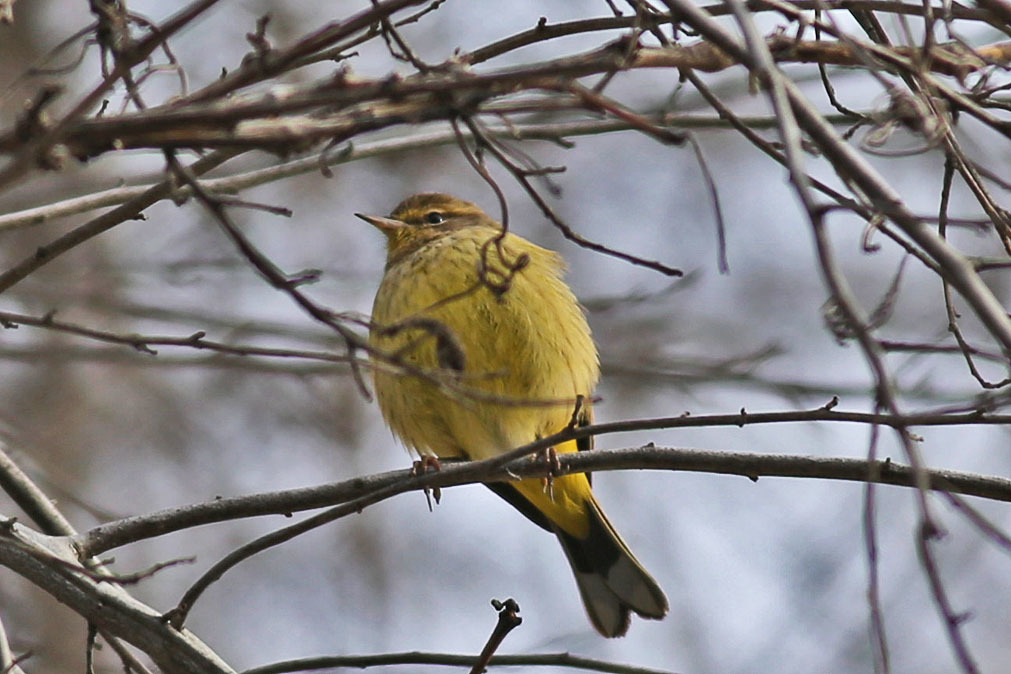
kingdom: Animalia
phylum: Chordata
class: Aves
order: Passeriformes
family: Parulidae
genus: Setophaga
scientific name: Setophaga palmarum
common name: Palm warbler
